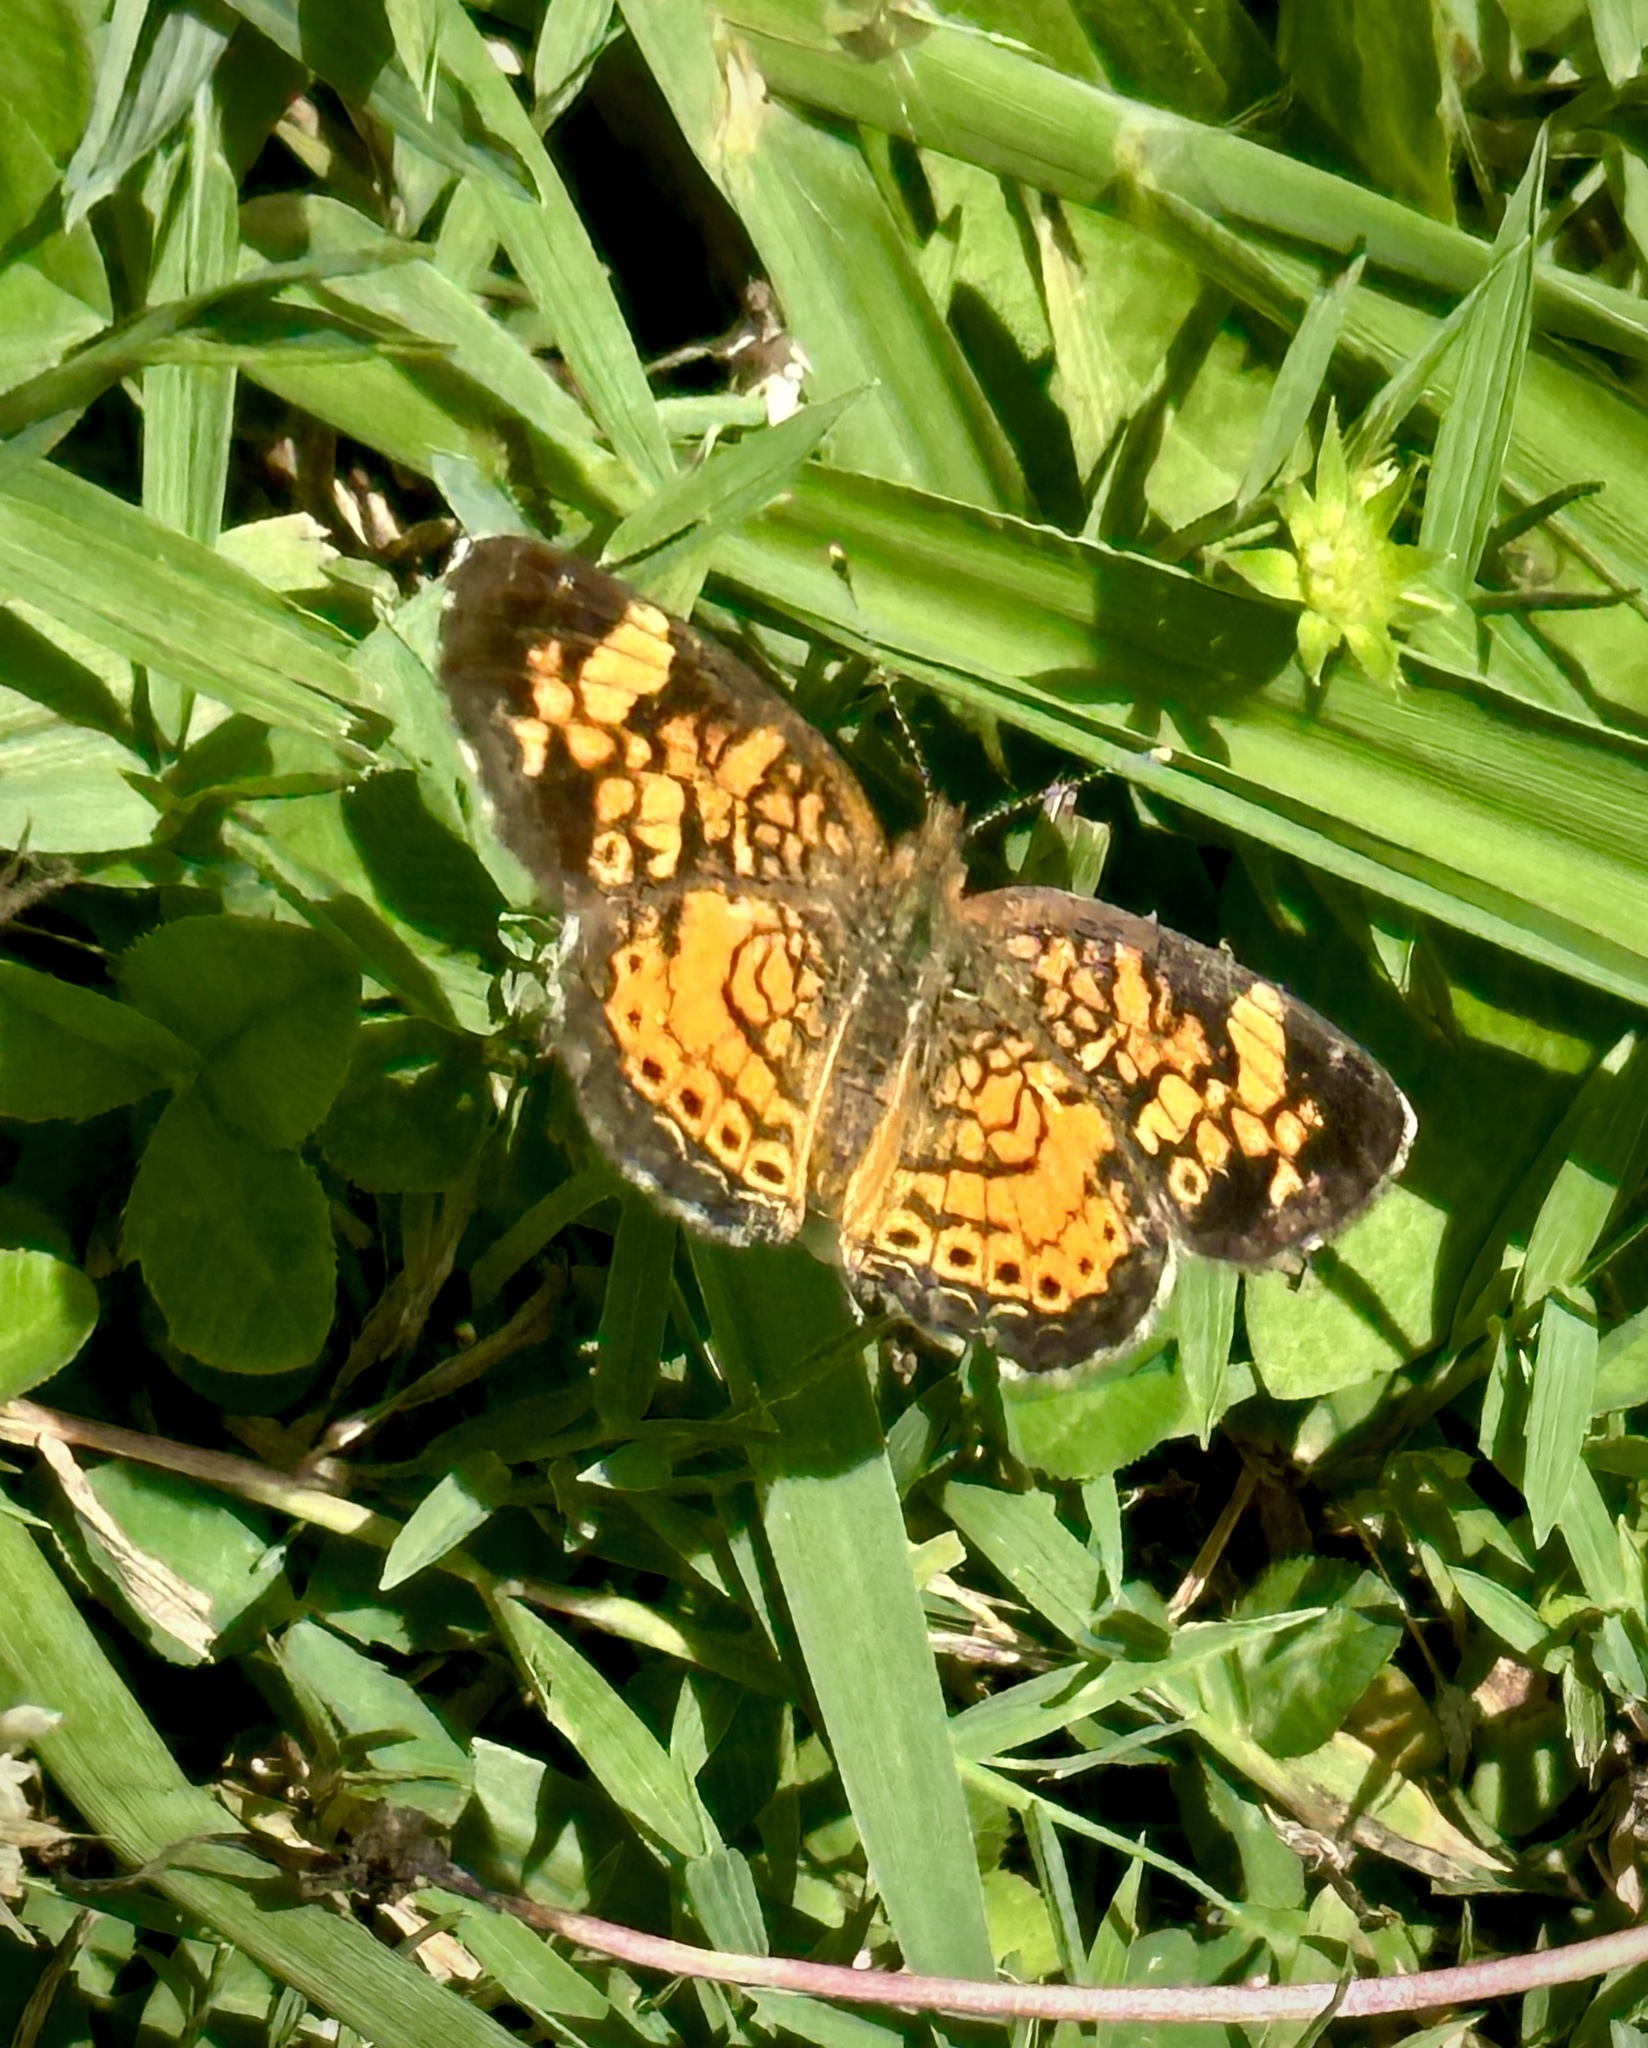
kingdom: Animalia
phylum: Arthropoda
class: Insecta
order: Lepidoptera
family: Nymphalidae
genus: Phyciodes
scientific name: Phyciodes tharos
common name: Pearl crescent
